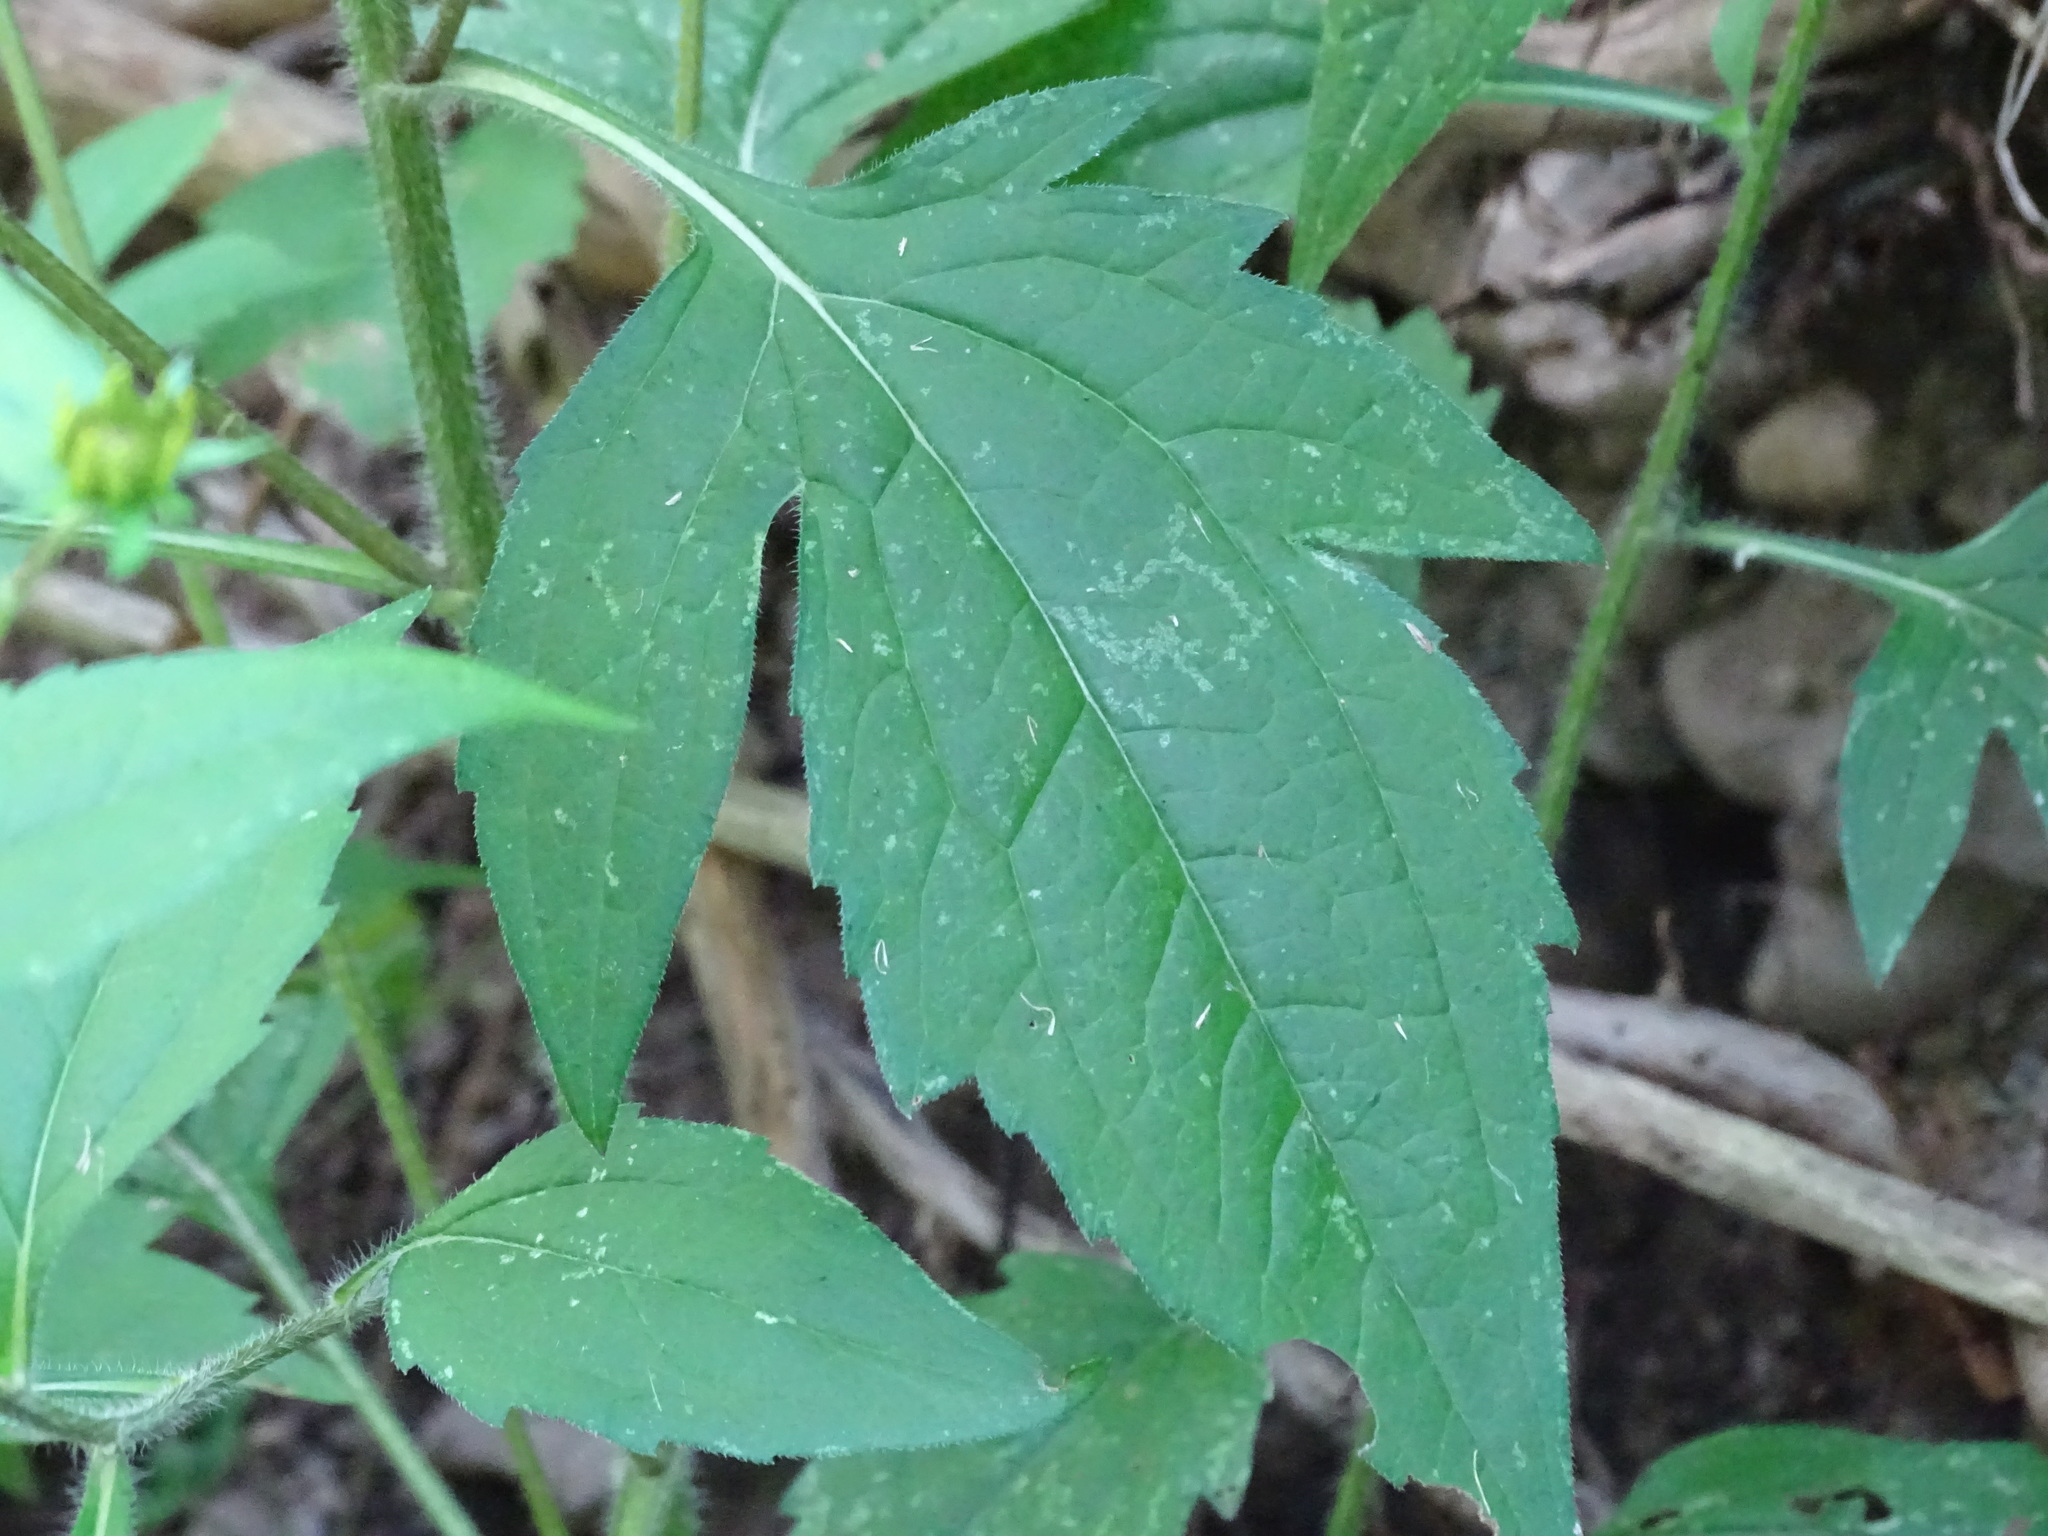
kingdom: Plantae
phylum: Tracheophyta
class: Magnoliopsida
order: Asterales
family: Asteraceae
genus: Rudbeckia
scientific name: Rudbeckia triloba
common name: Thin-leaved coneflower
